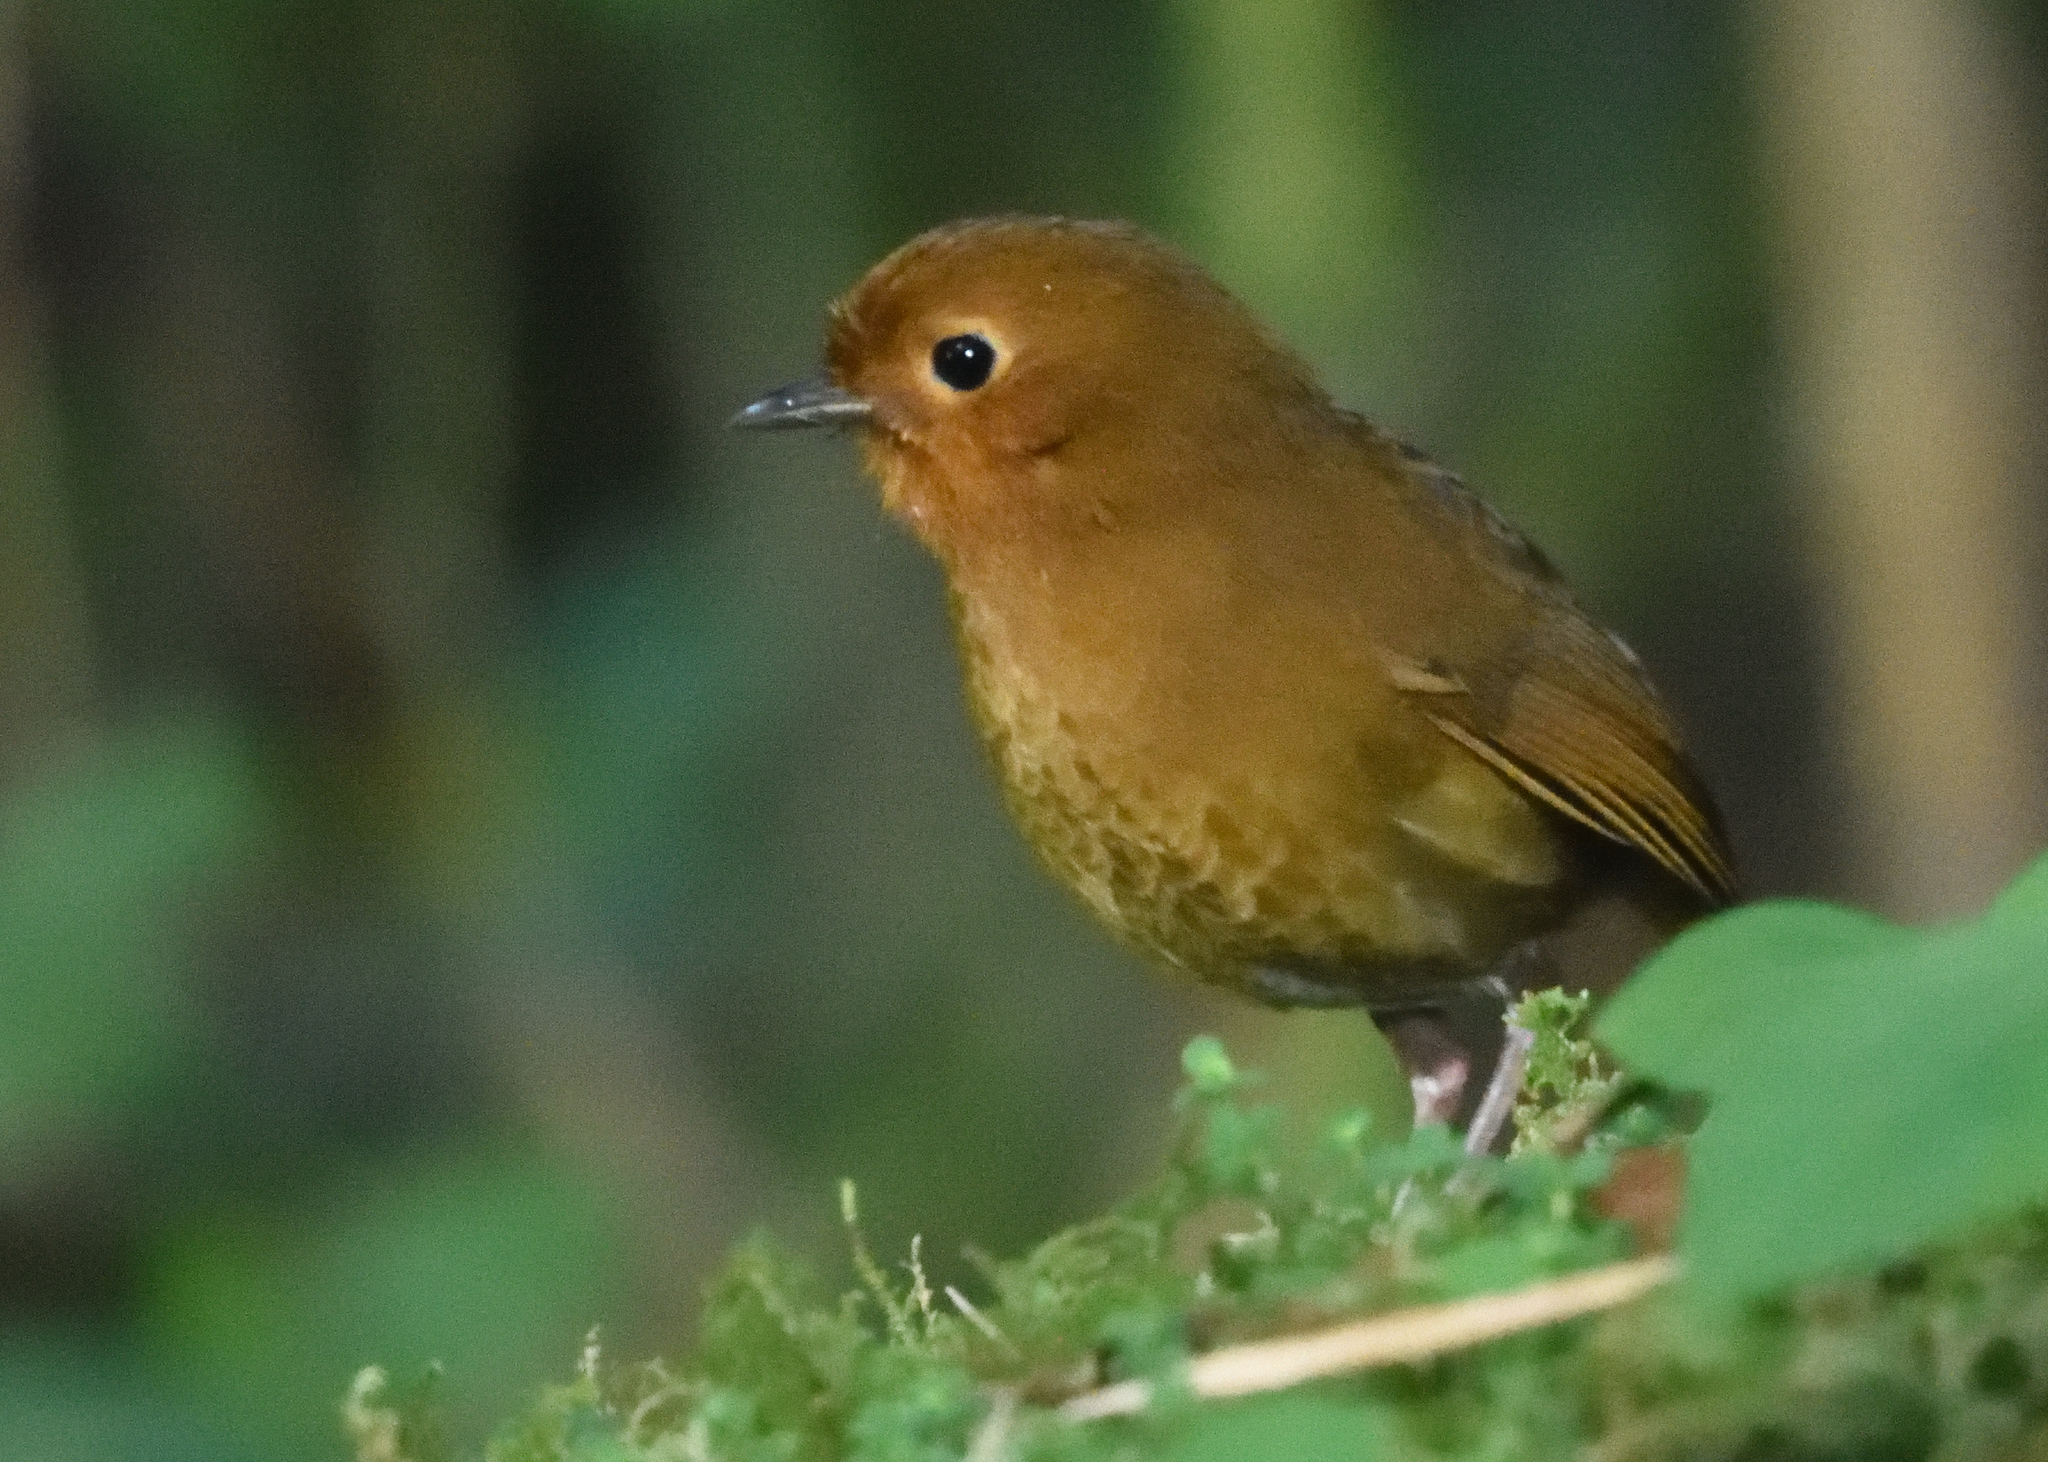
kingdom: Animalia
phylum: Chordata
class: Aves
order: Passeriformes
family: Grallariidae
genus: Grallaria
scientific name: Grallaria saturata
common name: Equatorial antpitta
